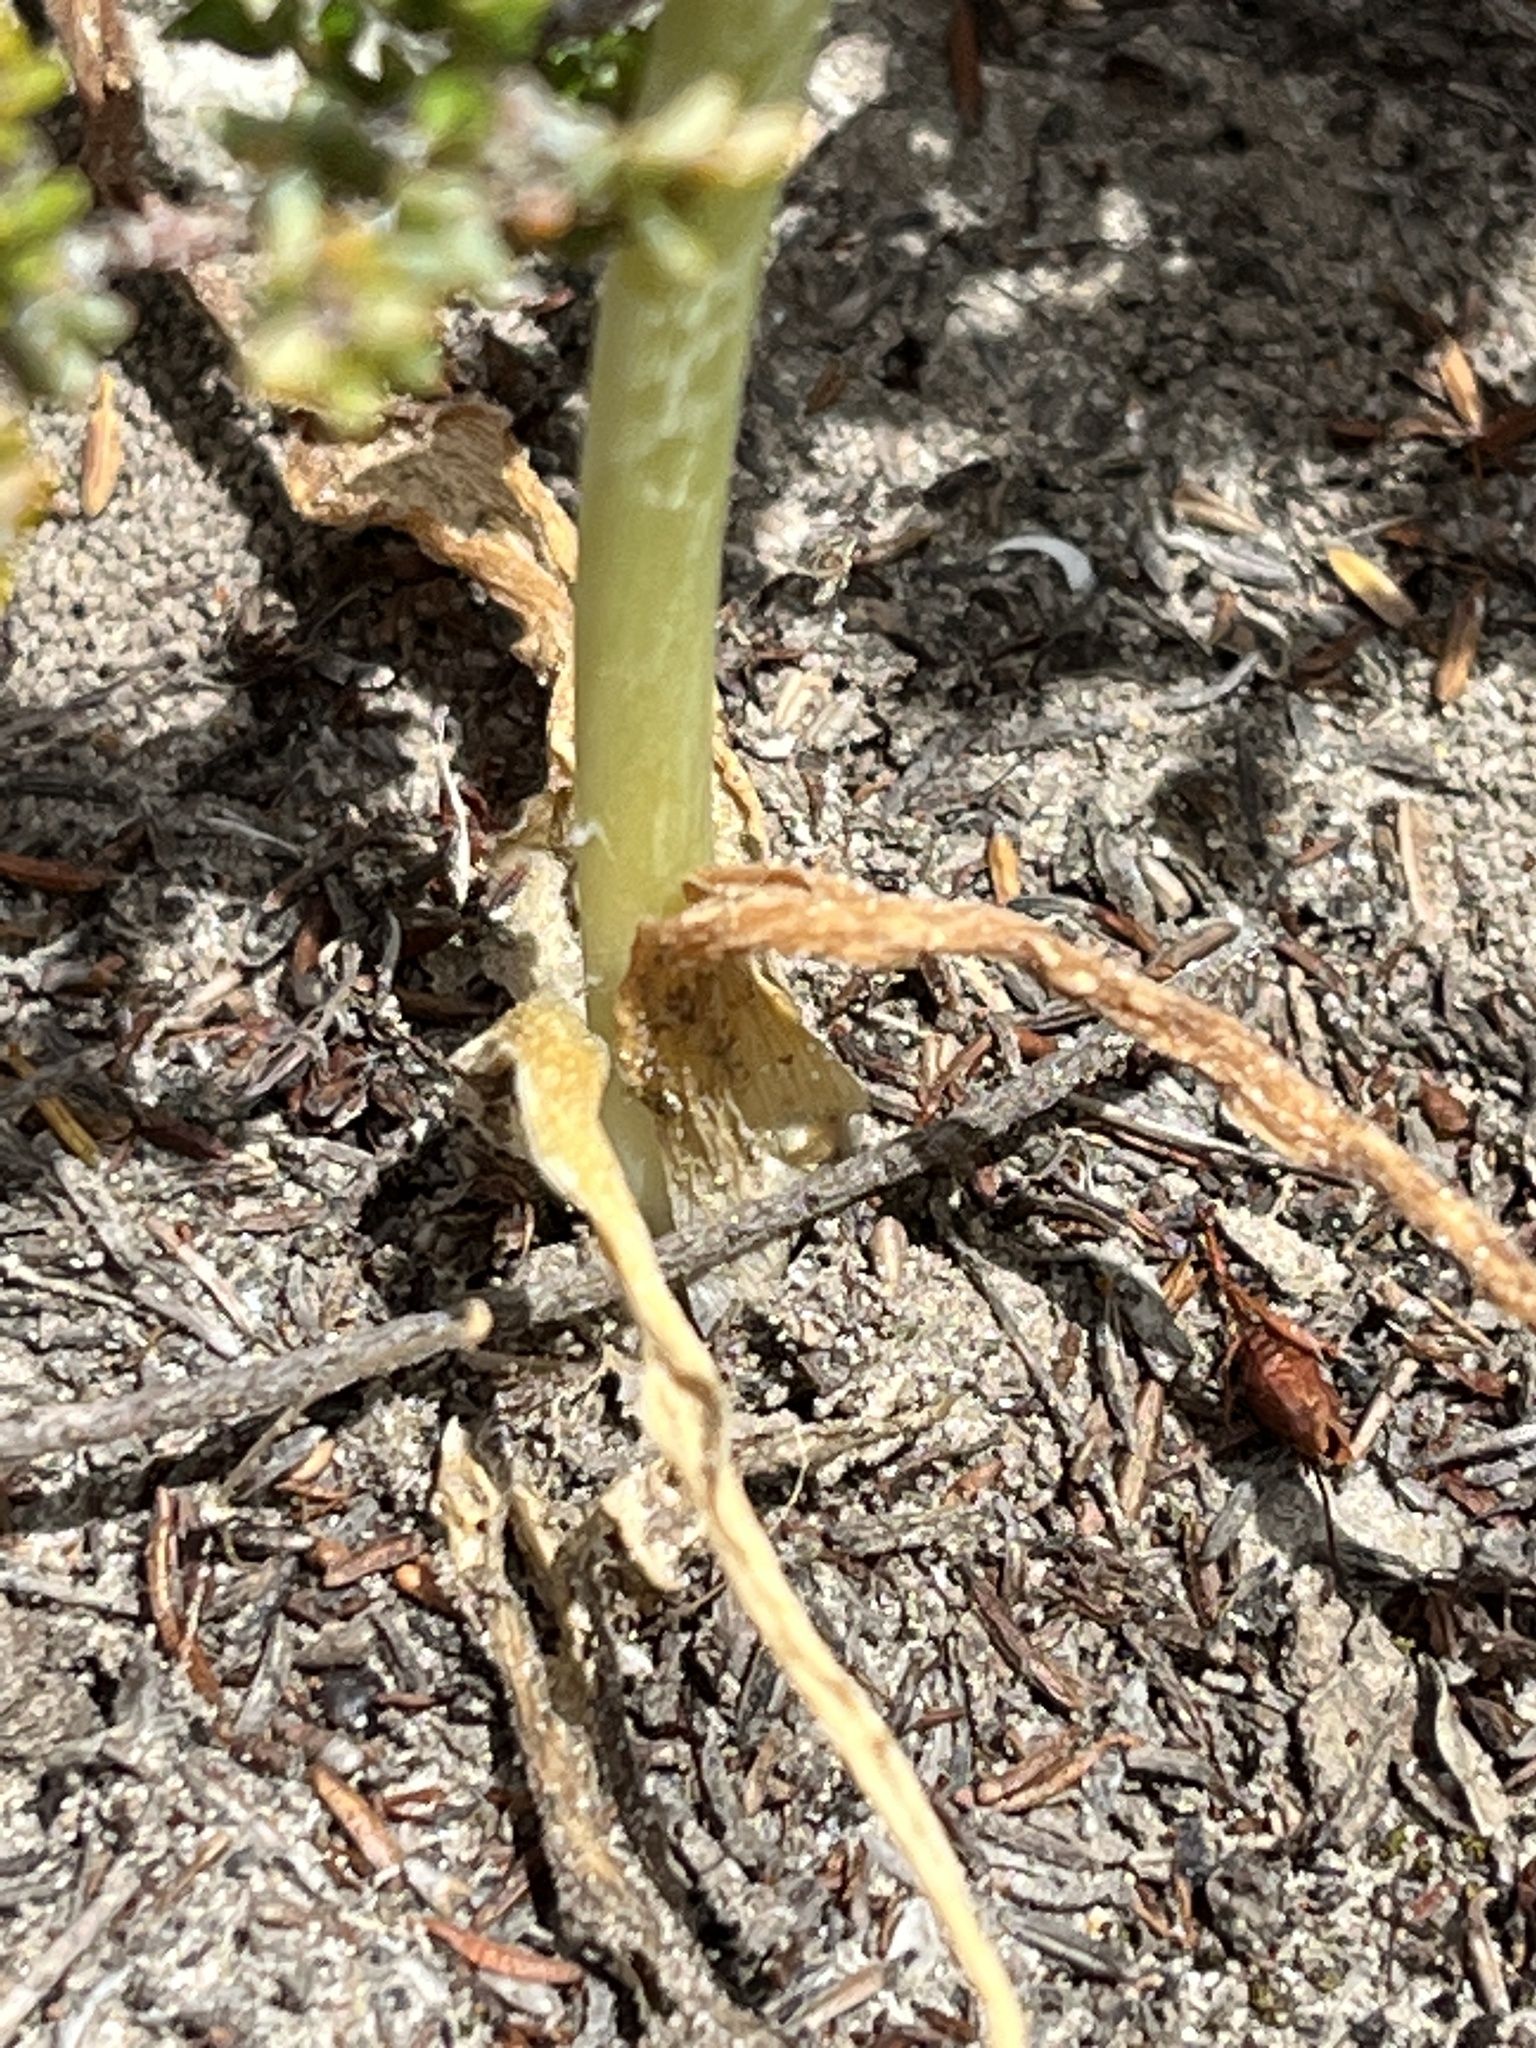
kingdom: Plantae
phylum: Tracheophyta
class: Liliopsida
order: Asparagales
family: Asparagaceae
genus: Ornithogalum
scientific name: Ornithogalum dubium
